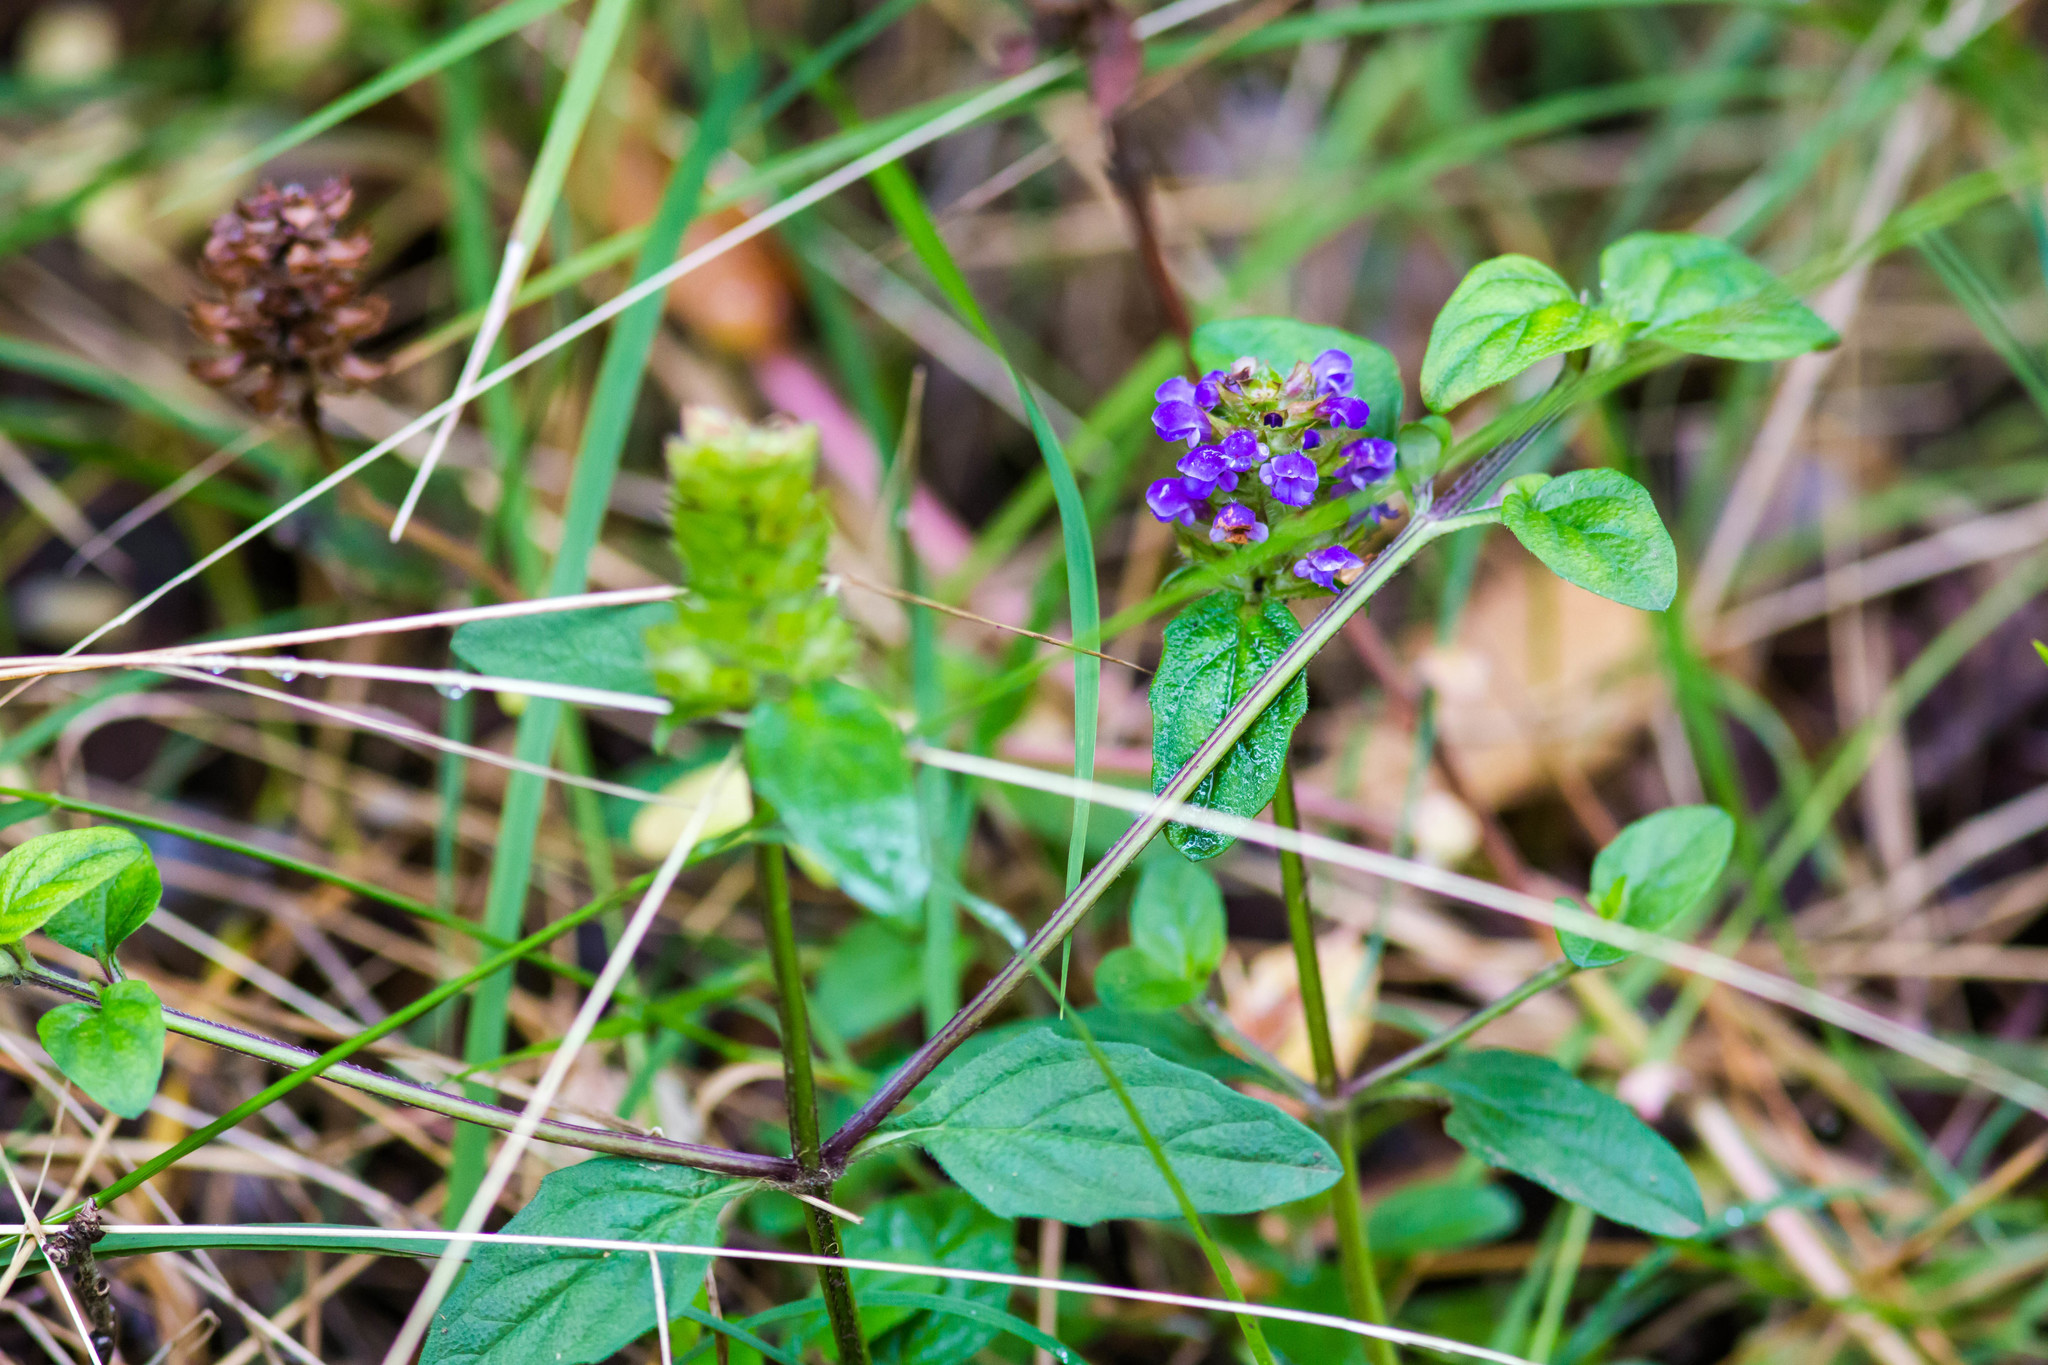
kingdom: Plantae
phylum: Tracheophyta
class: Magnoliopsida
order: Lamiales
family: Lamiaceae
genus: Prunella
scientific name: Prunella vulgaris
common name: Heal-all
